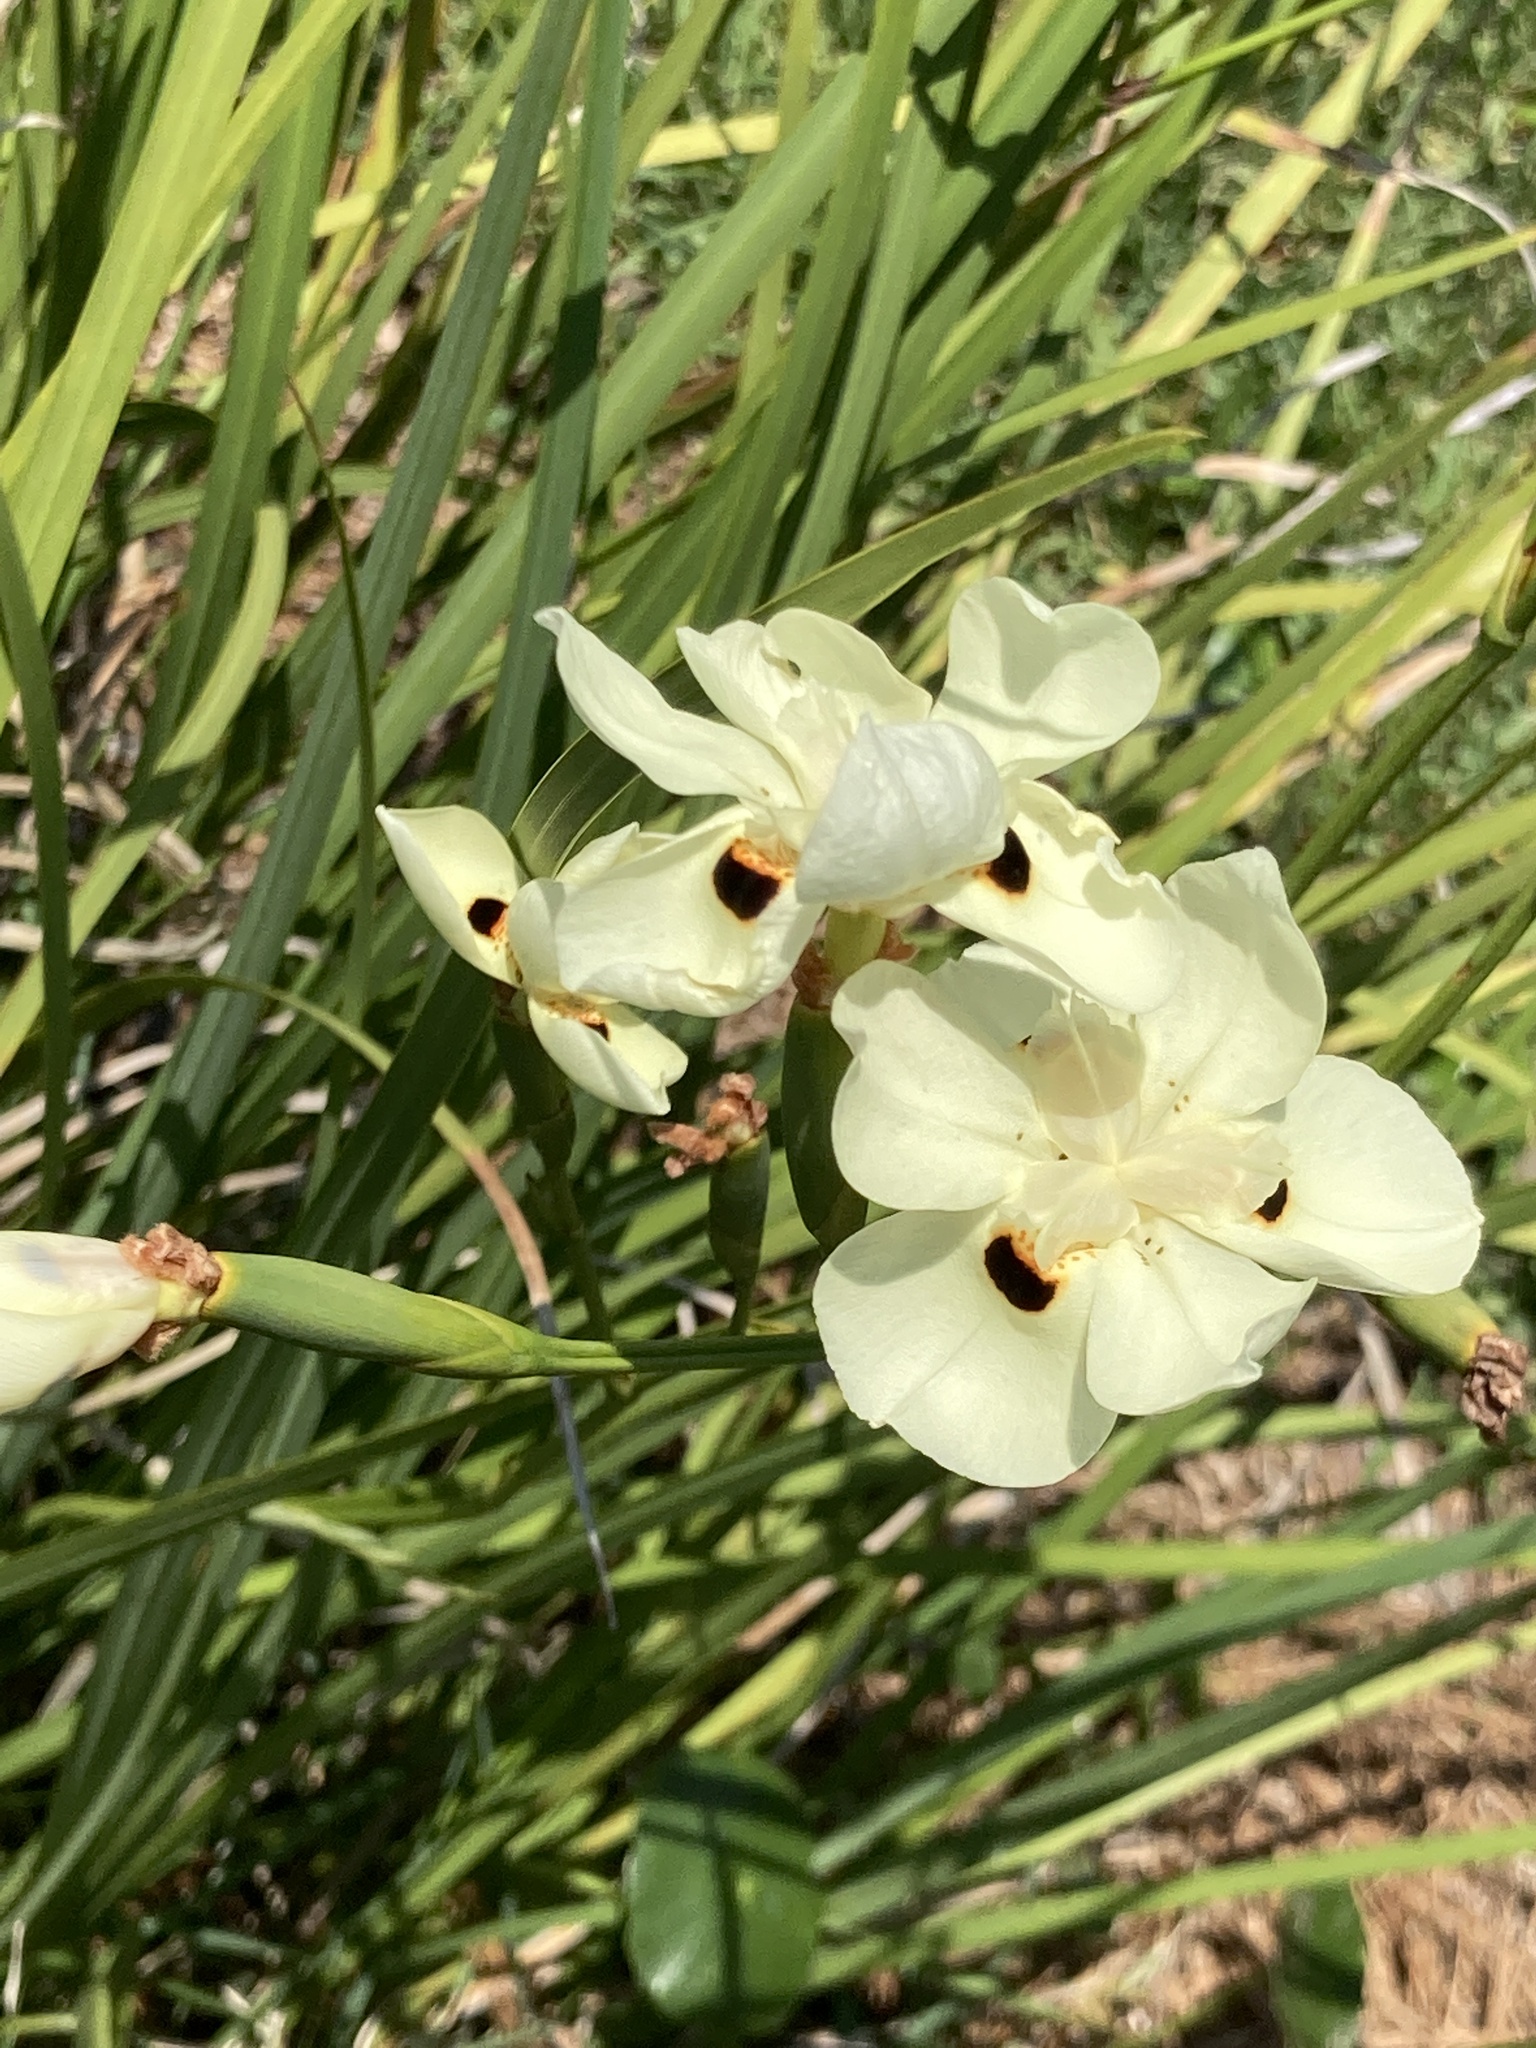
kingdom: Plantae
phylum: Tracheophyta
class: Liliopsida
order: Asparagales
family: Iridaceae
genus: Dietes
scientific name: Dietes bicolor
